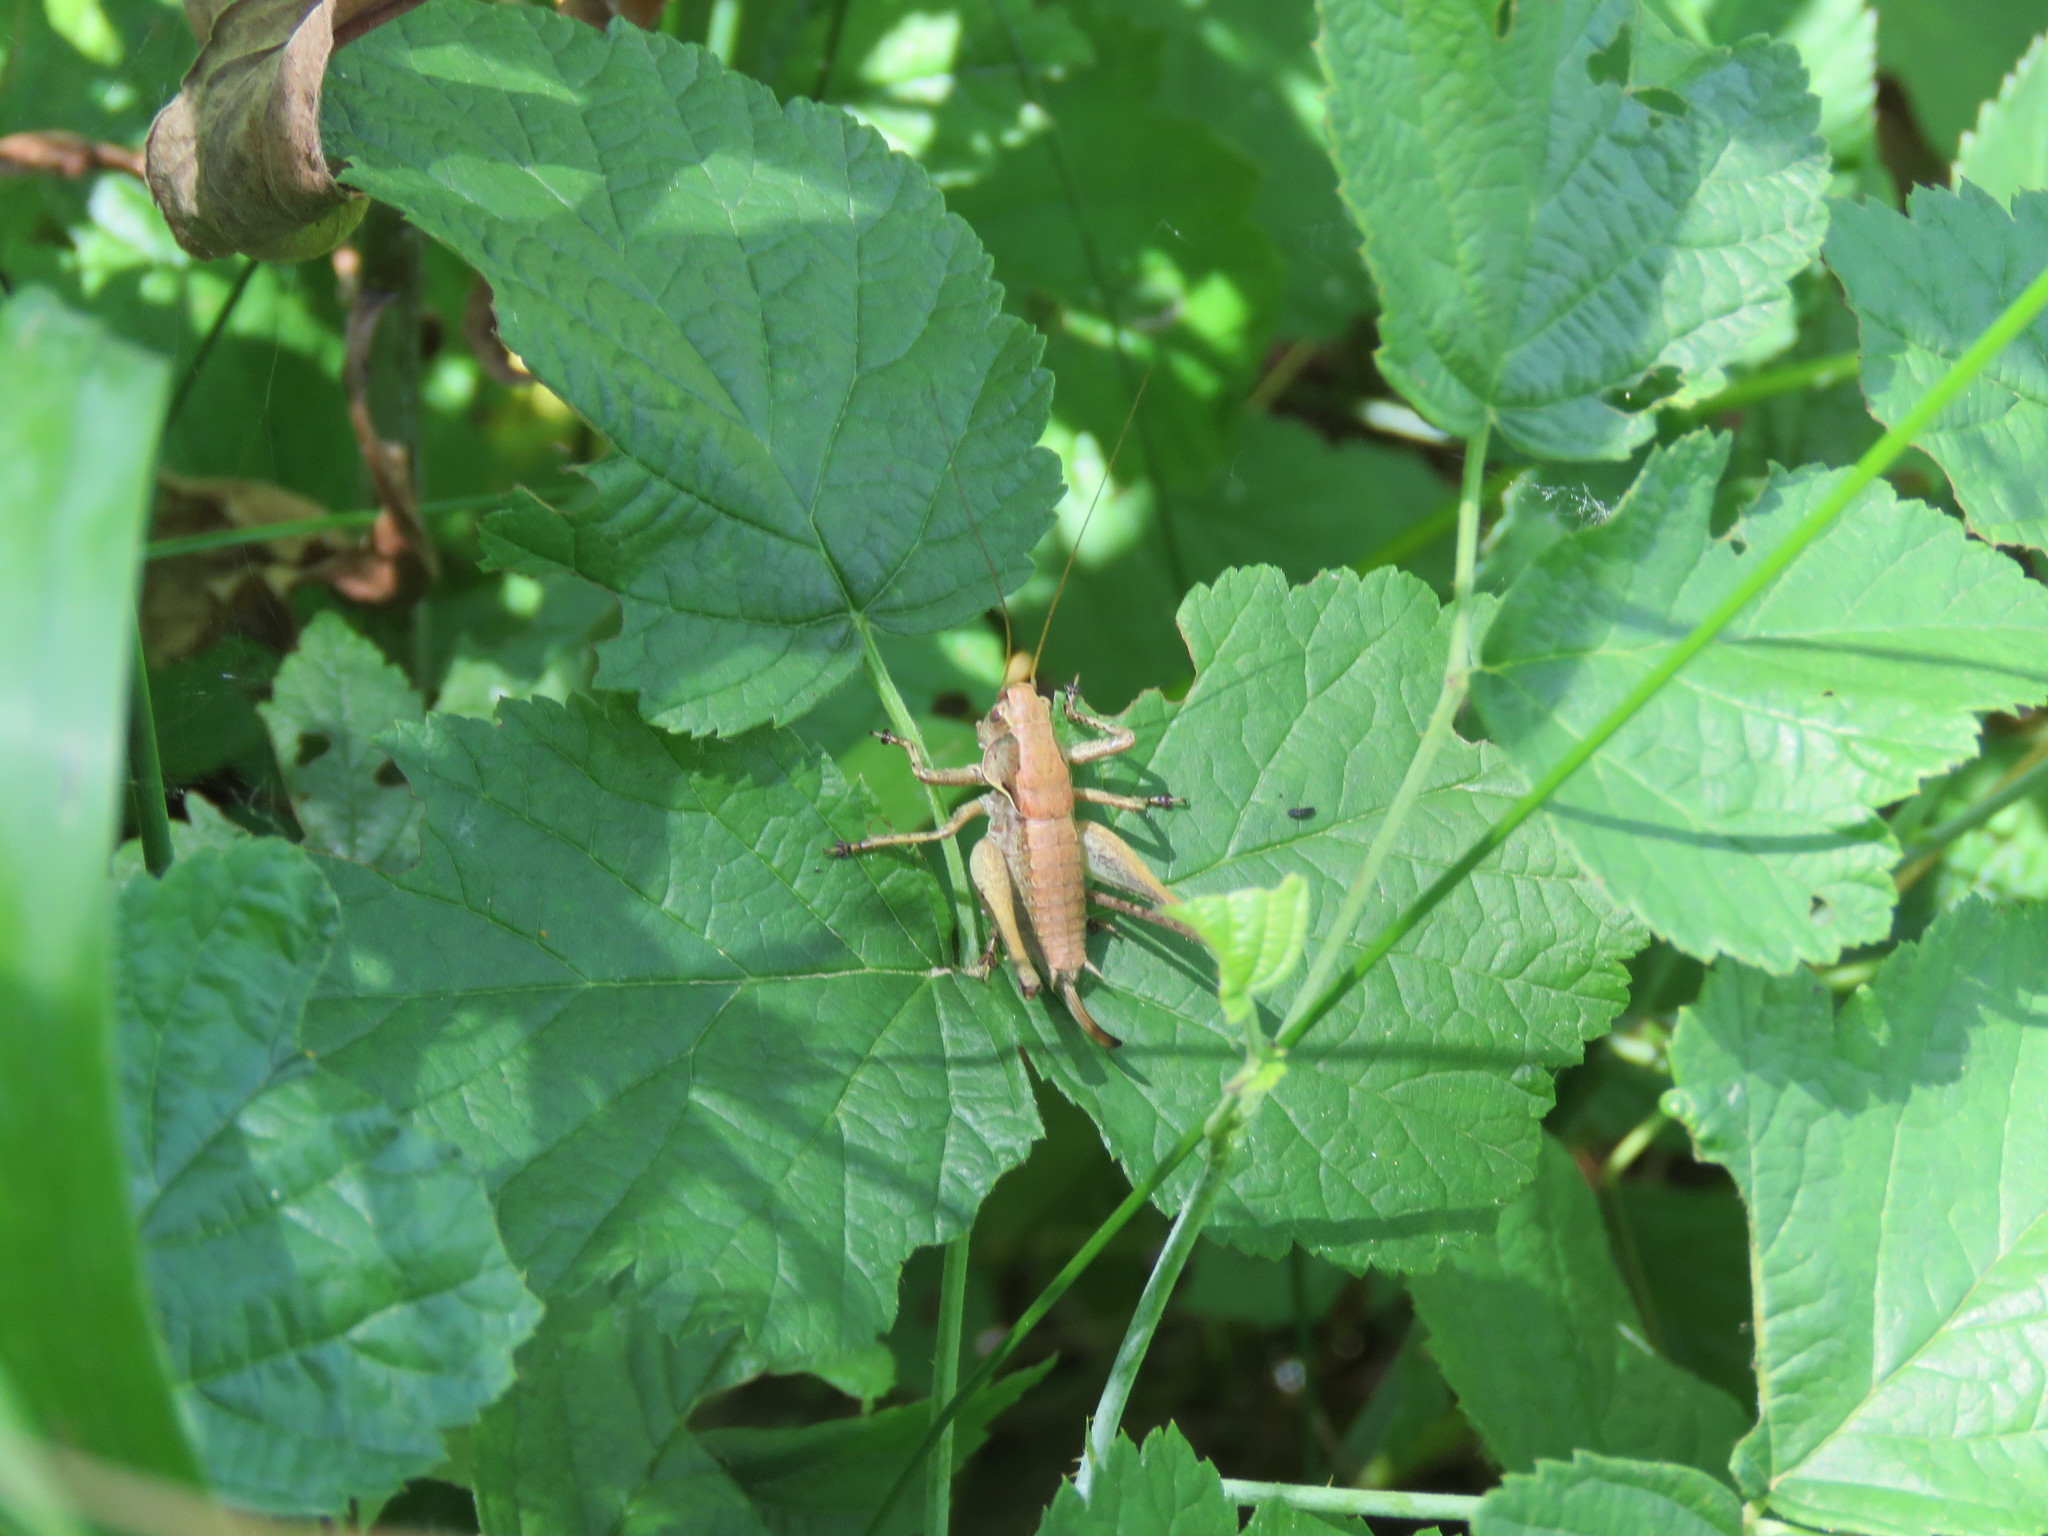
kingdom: Animalia
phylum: Arthropoda
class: Insecta
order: Orthoptera
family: Tettigoniidae
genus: Pholidoptera
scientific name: Pholidoptera griseoaptera
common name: Dark bush-cricket
